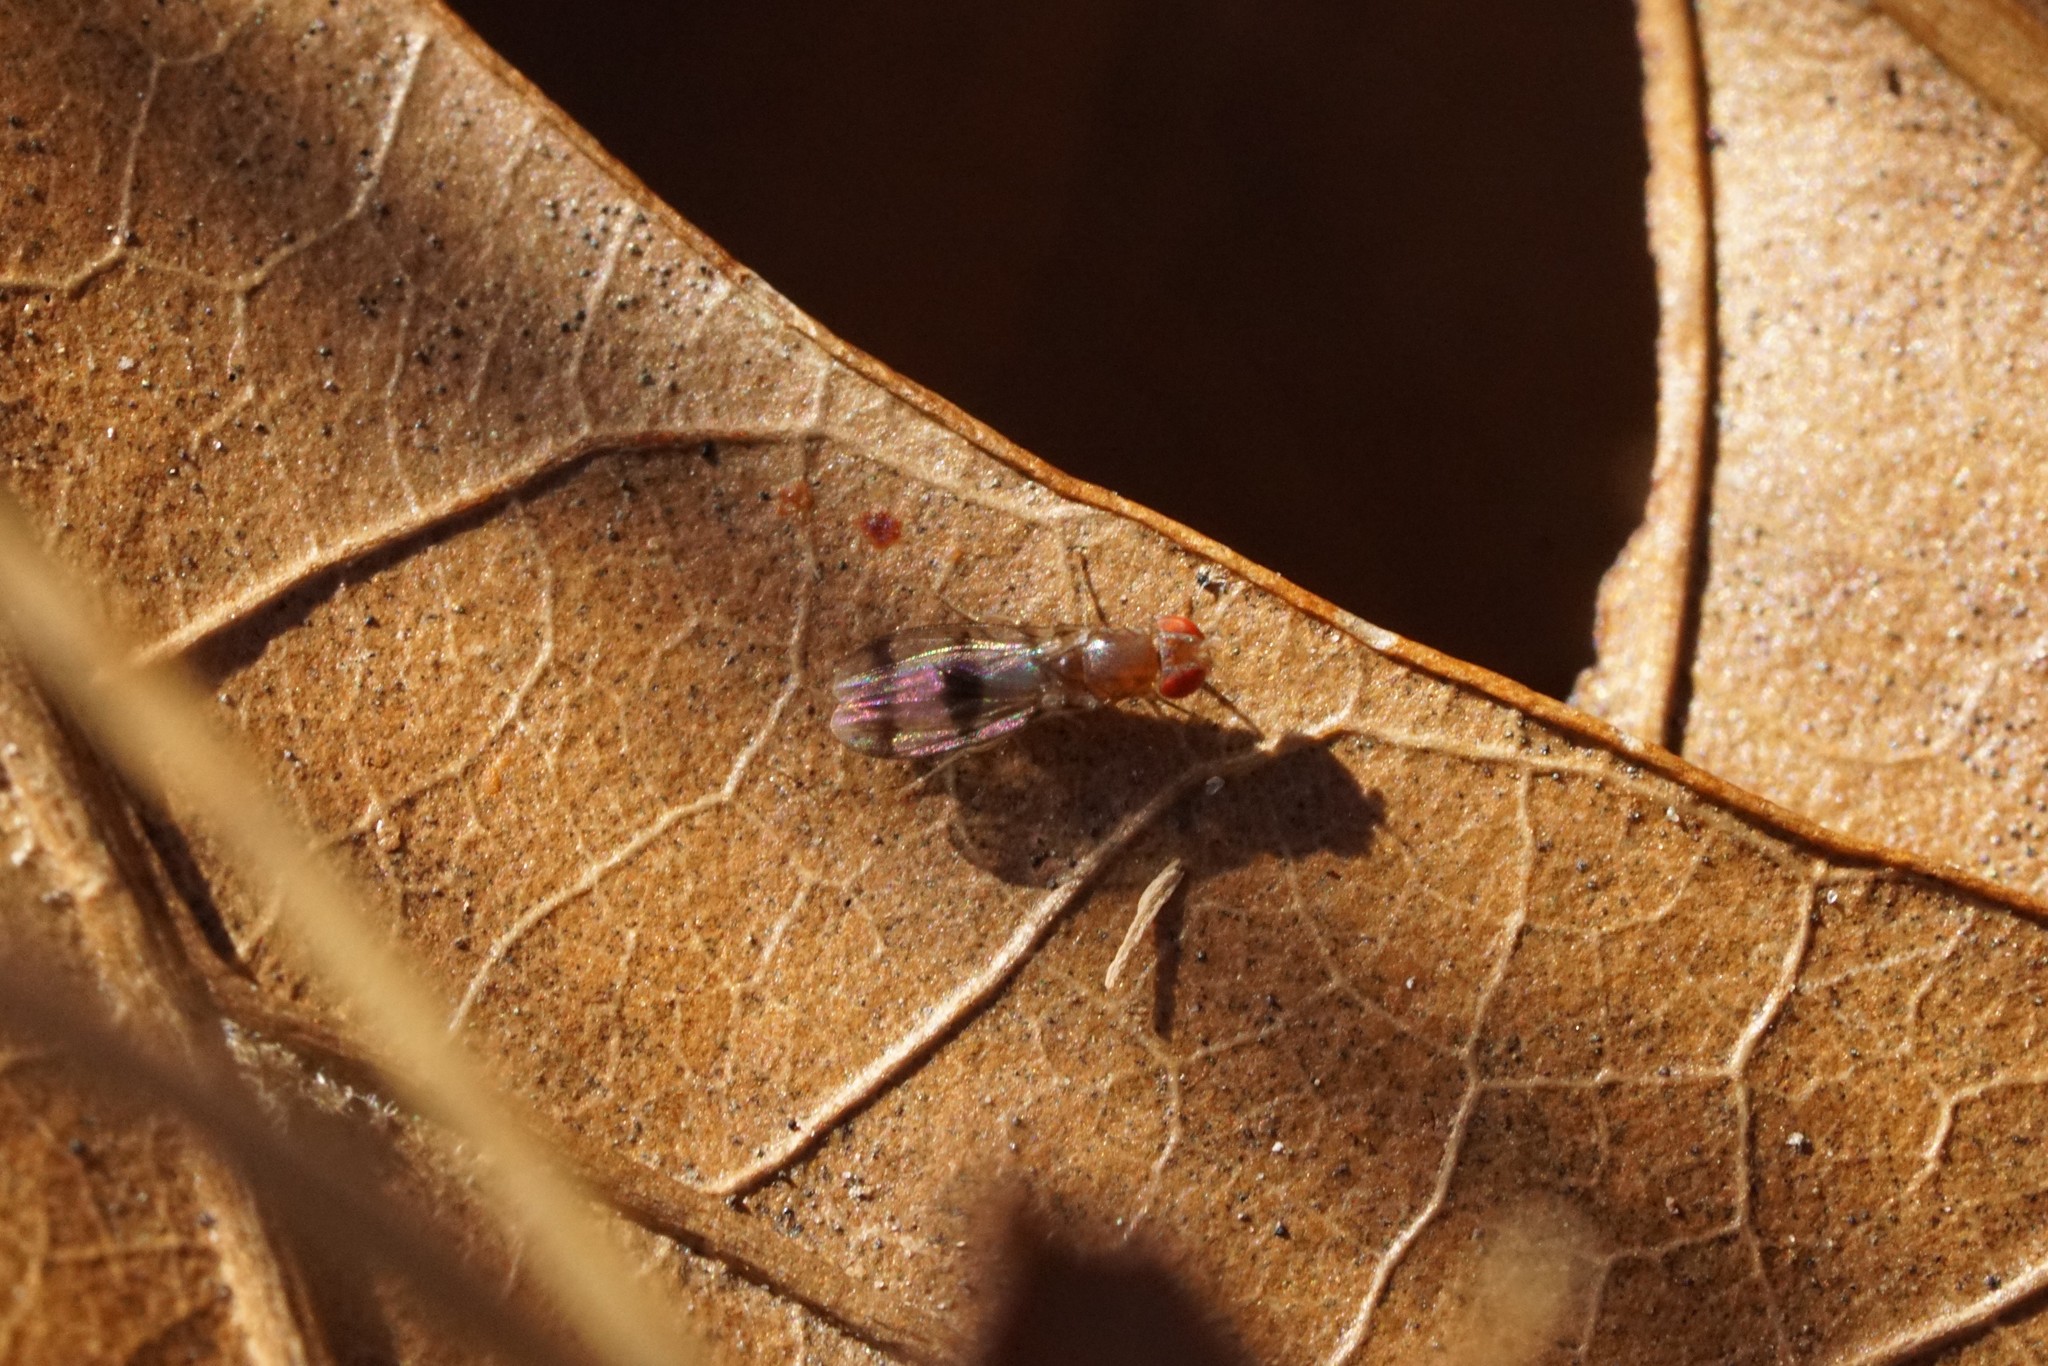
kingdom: Animalia
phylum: Arthropoda
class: Insecta
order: Diptera
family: Drosophilidae
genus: Chymomyza
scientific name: Chymomyza amoena
